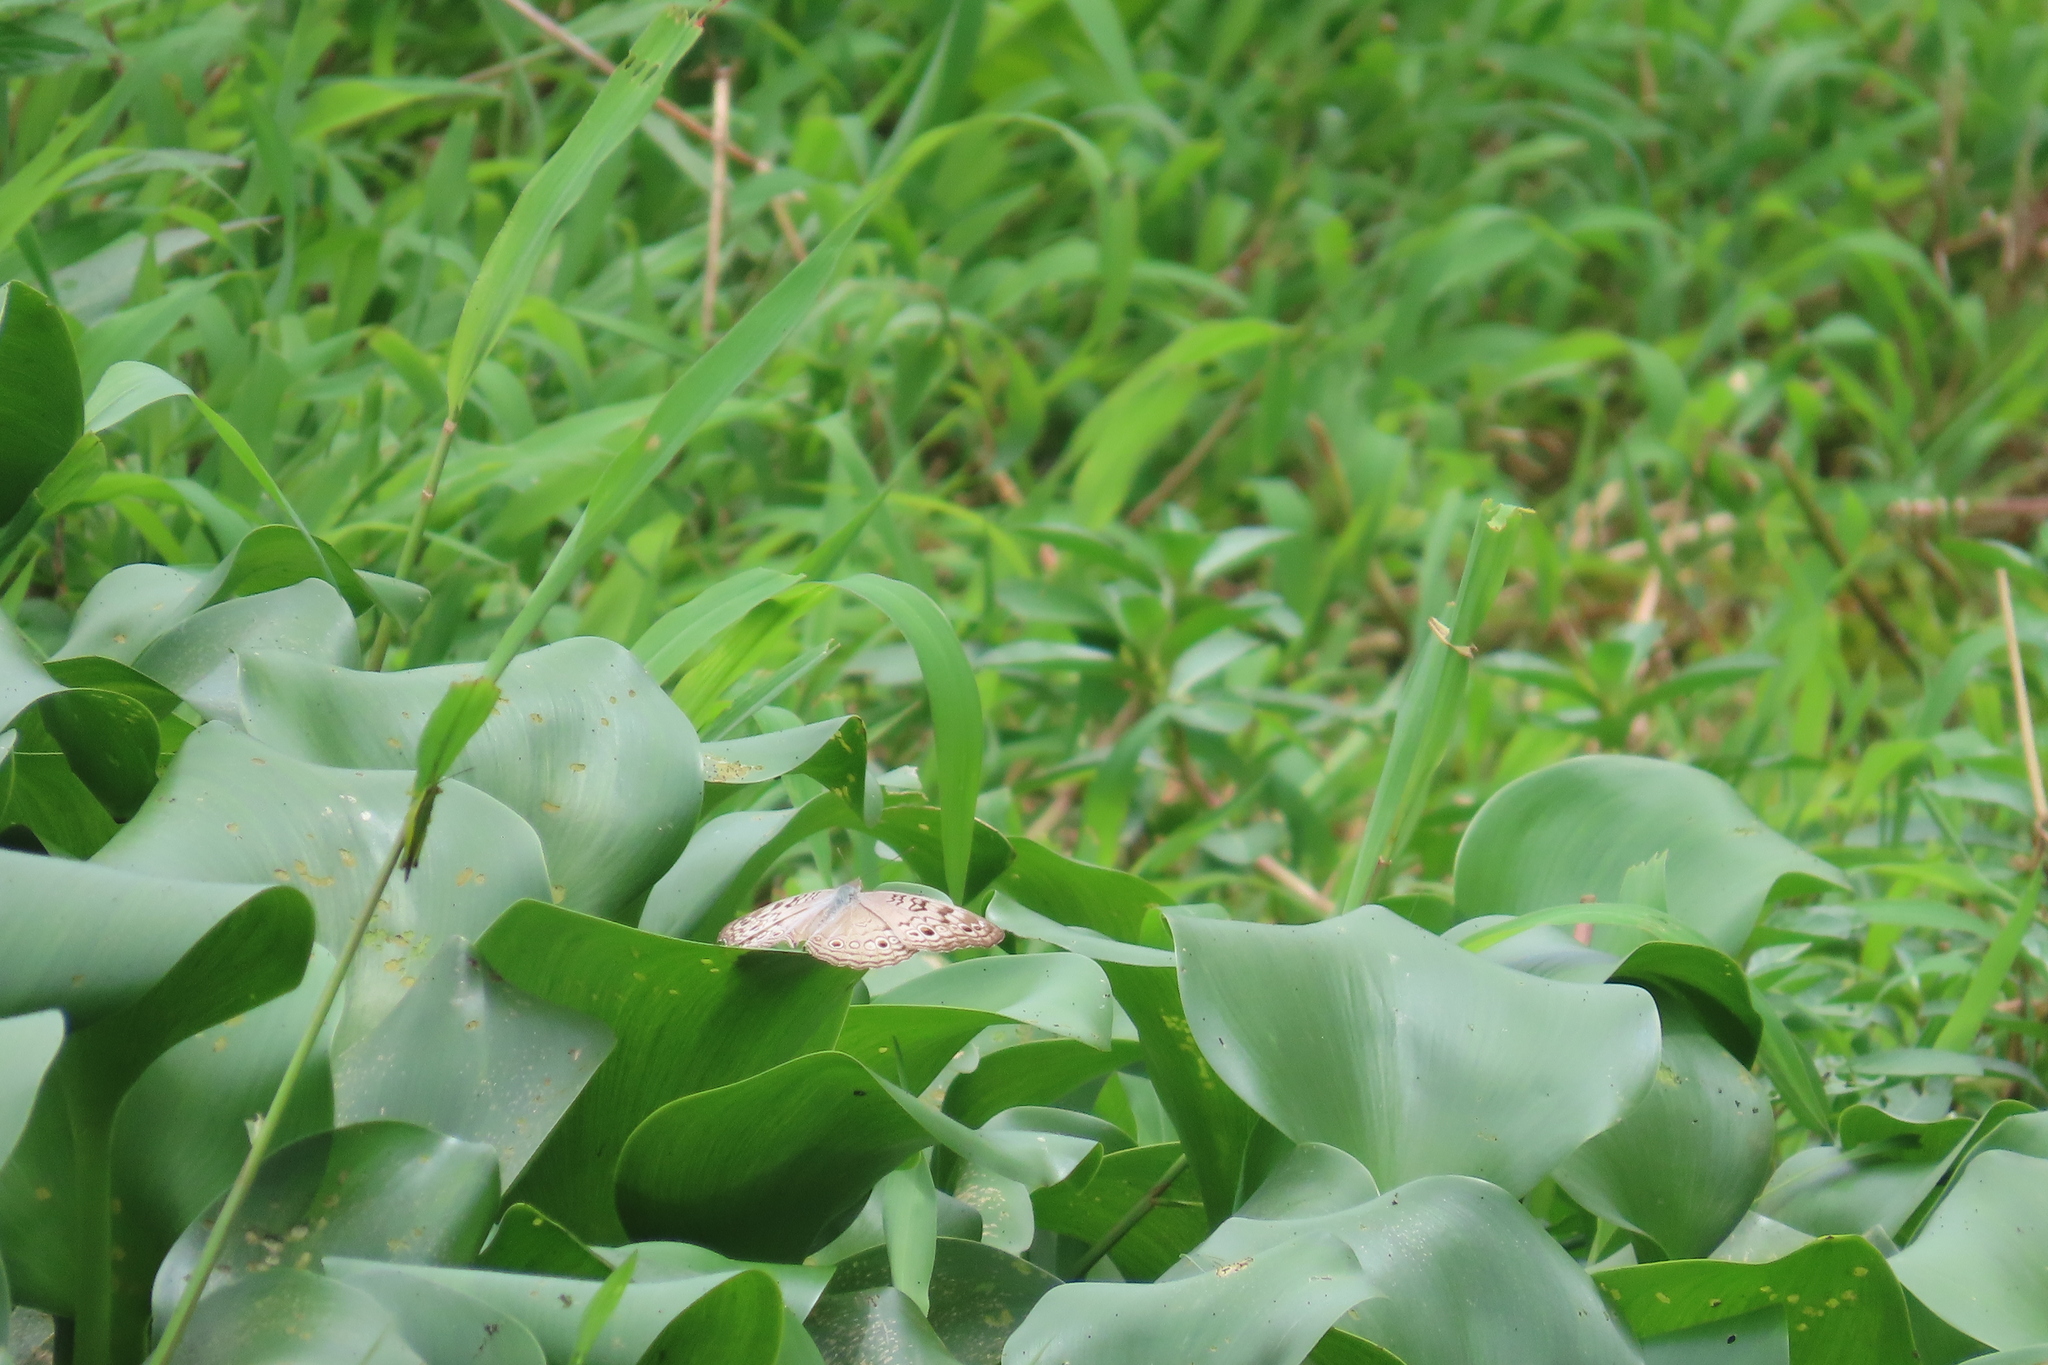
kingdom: Animalia
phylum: Arthropoda
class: Insecta
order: Lepidoptera
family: Nymphalidae
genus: Junonia
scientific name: Junonia atlites
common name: Grey pansy
